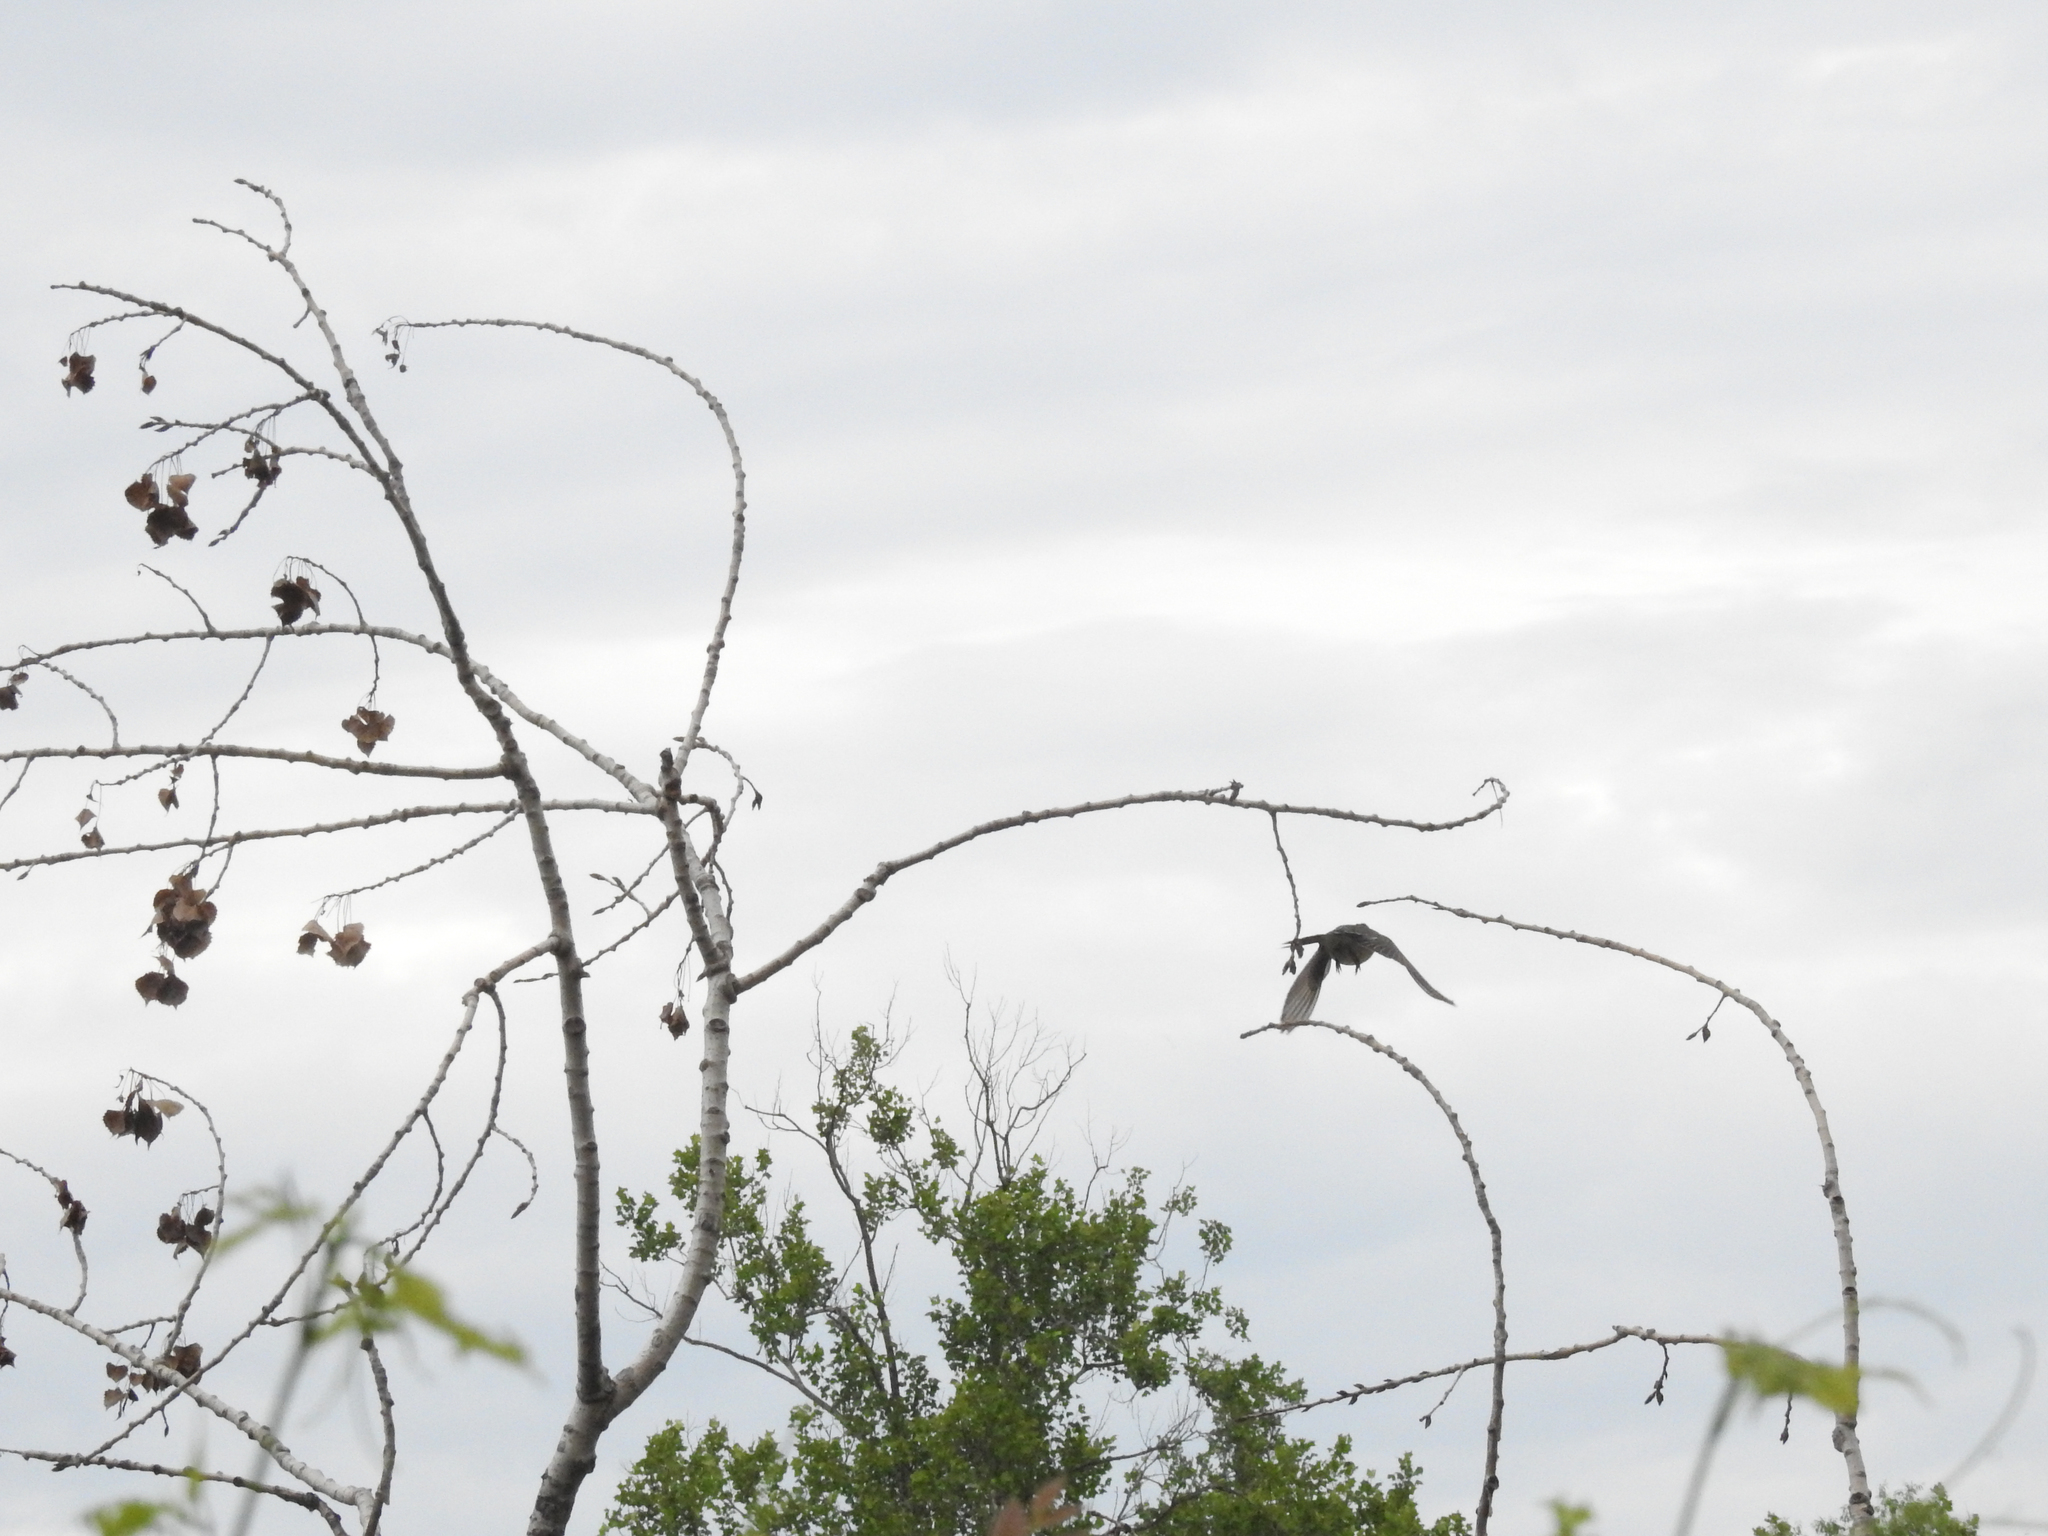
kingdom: Animalia
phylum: Chordata
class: Aves
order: Passeriformes
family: Tyrannidae
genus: Tyrannus
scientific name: Tyrannus verticalis
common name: Western kingbird
